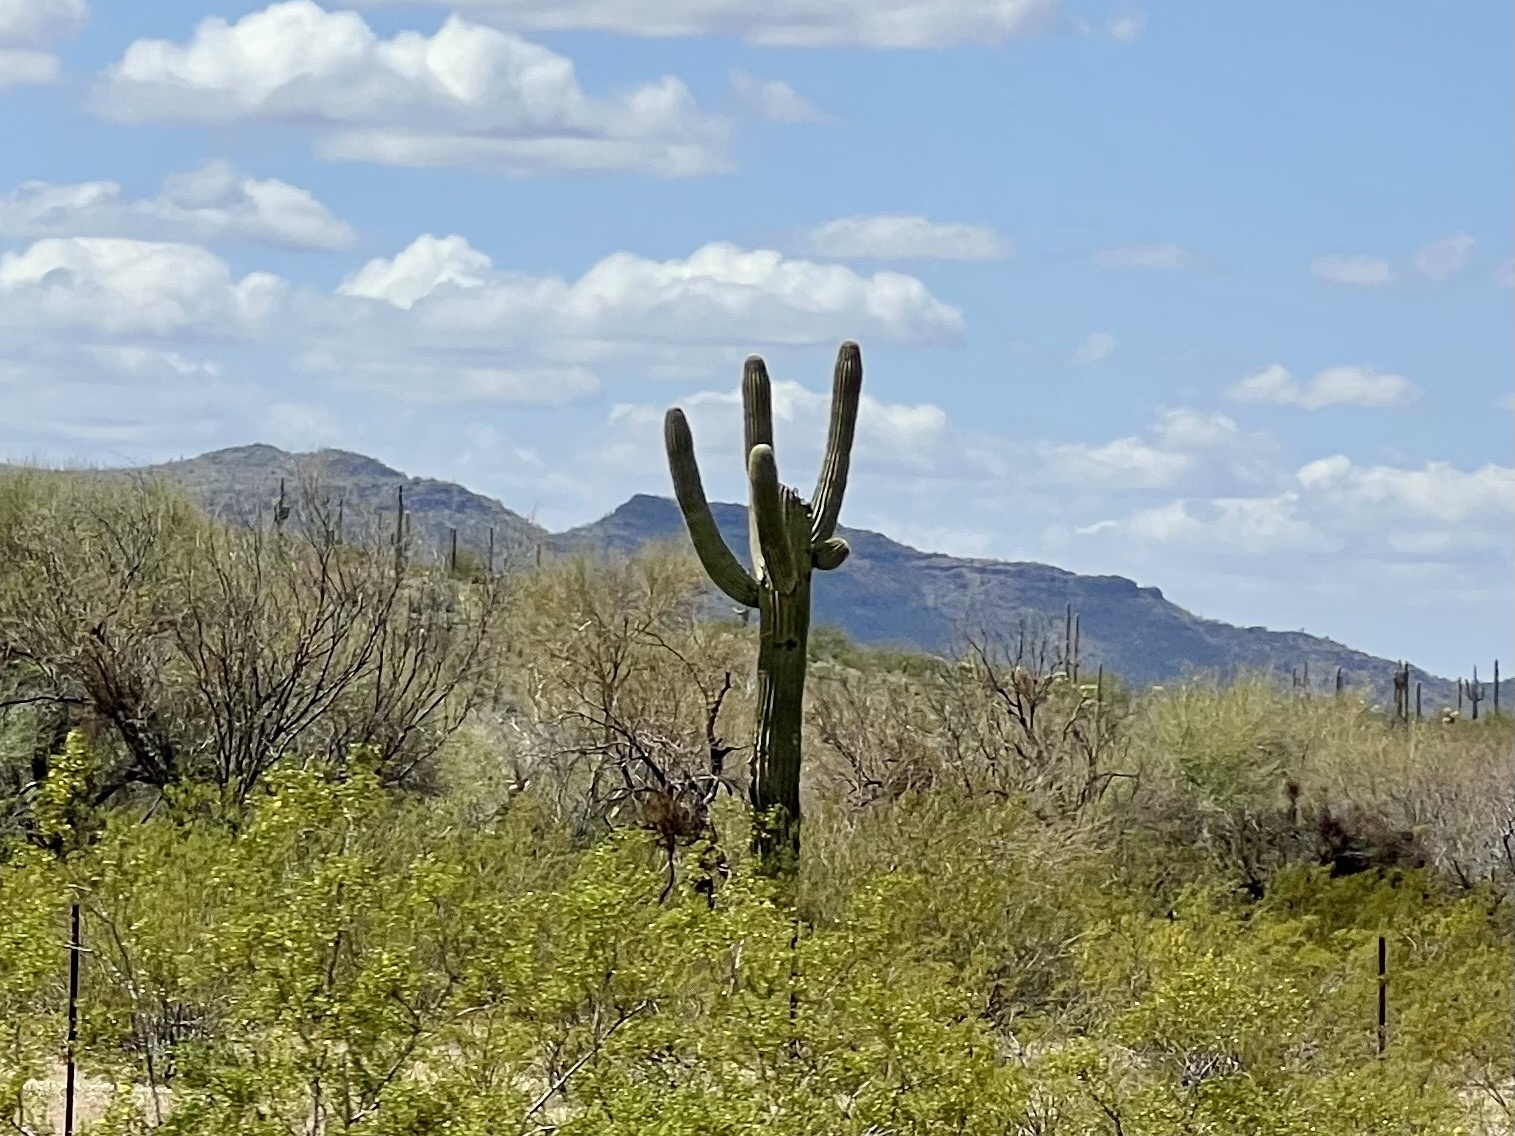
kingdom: Plantae
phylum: Tracheophyta
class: Magnoliopsida
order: Caryophyllales
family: Cactaceae
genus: Carnegiea
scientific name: Carnegiea gigantea
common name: Saguaro
